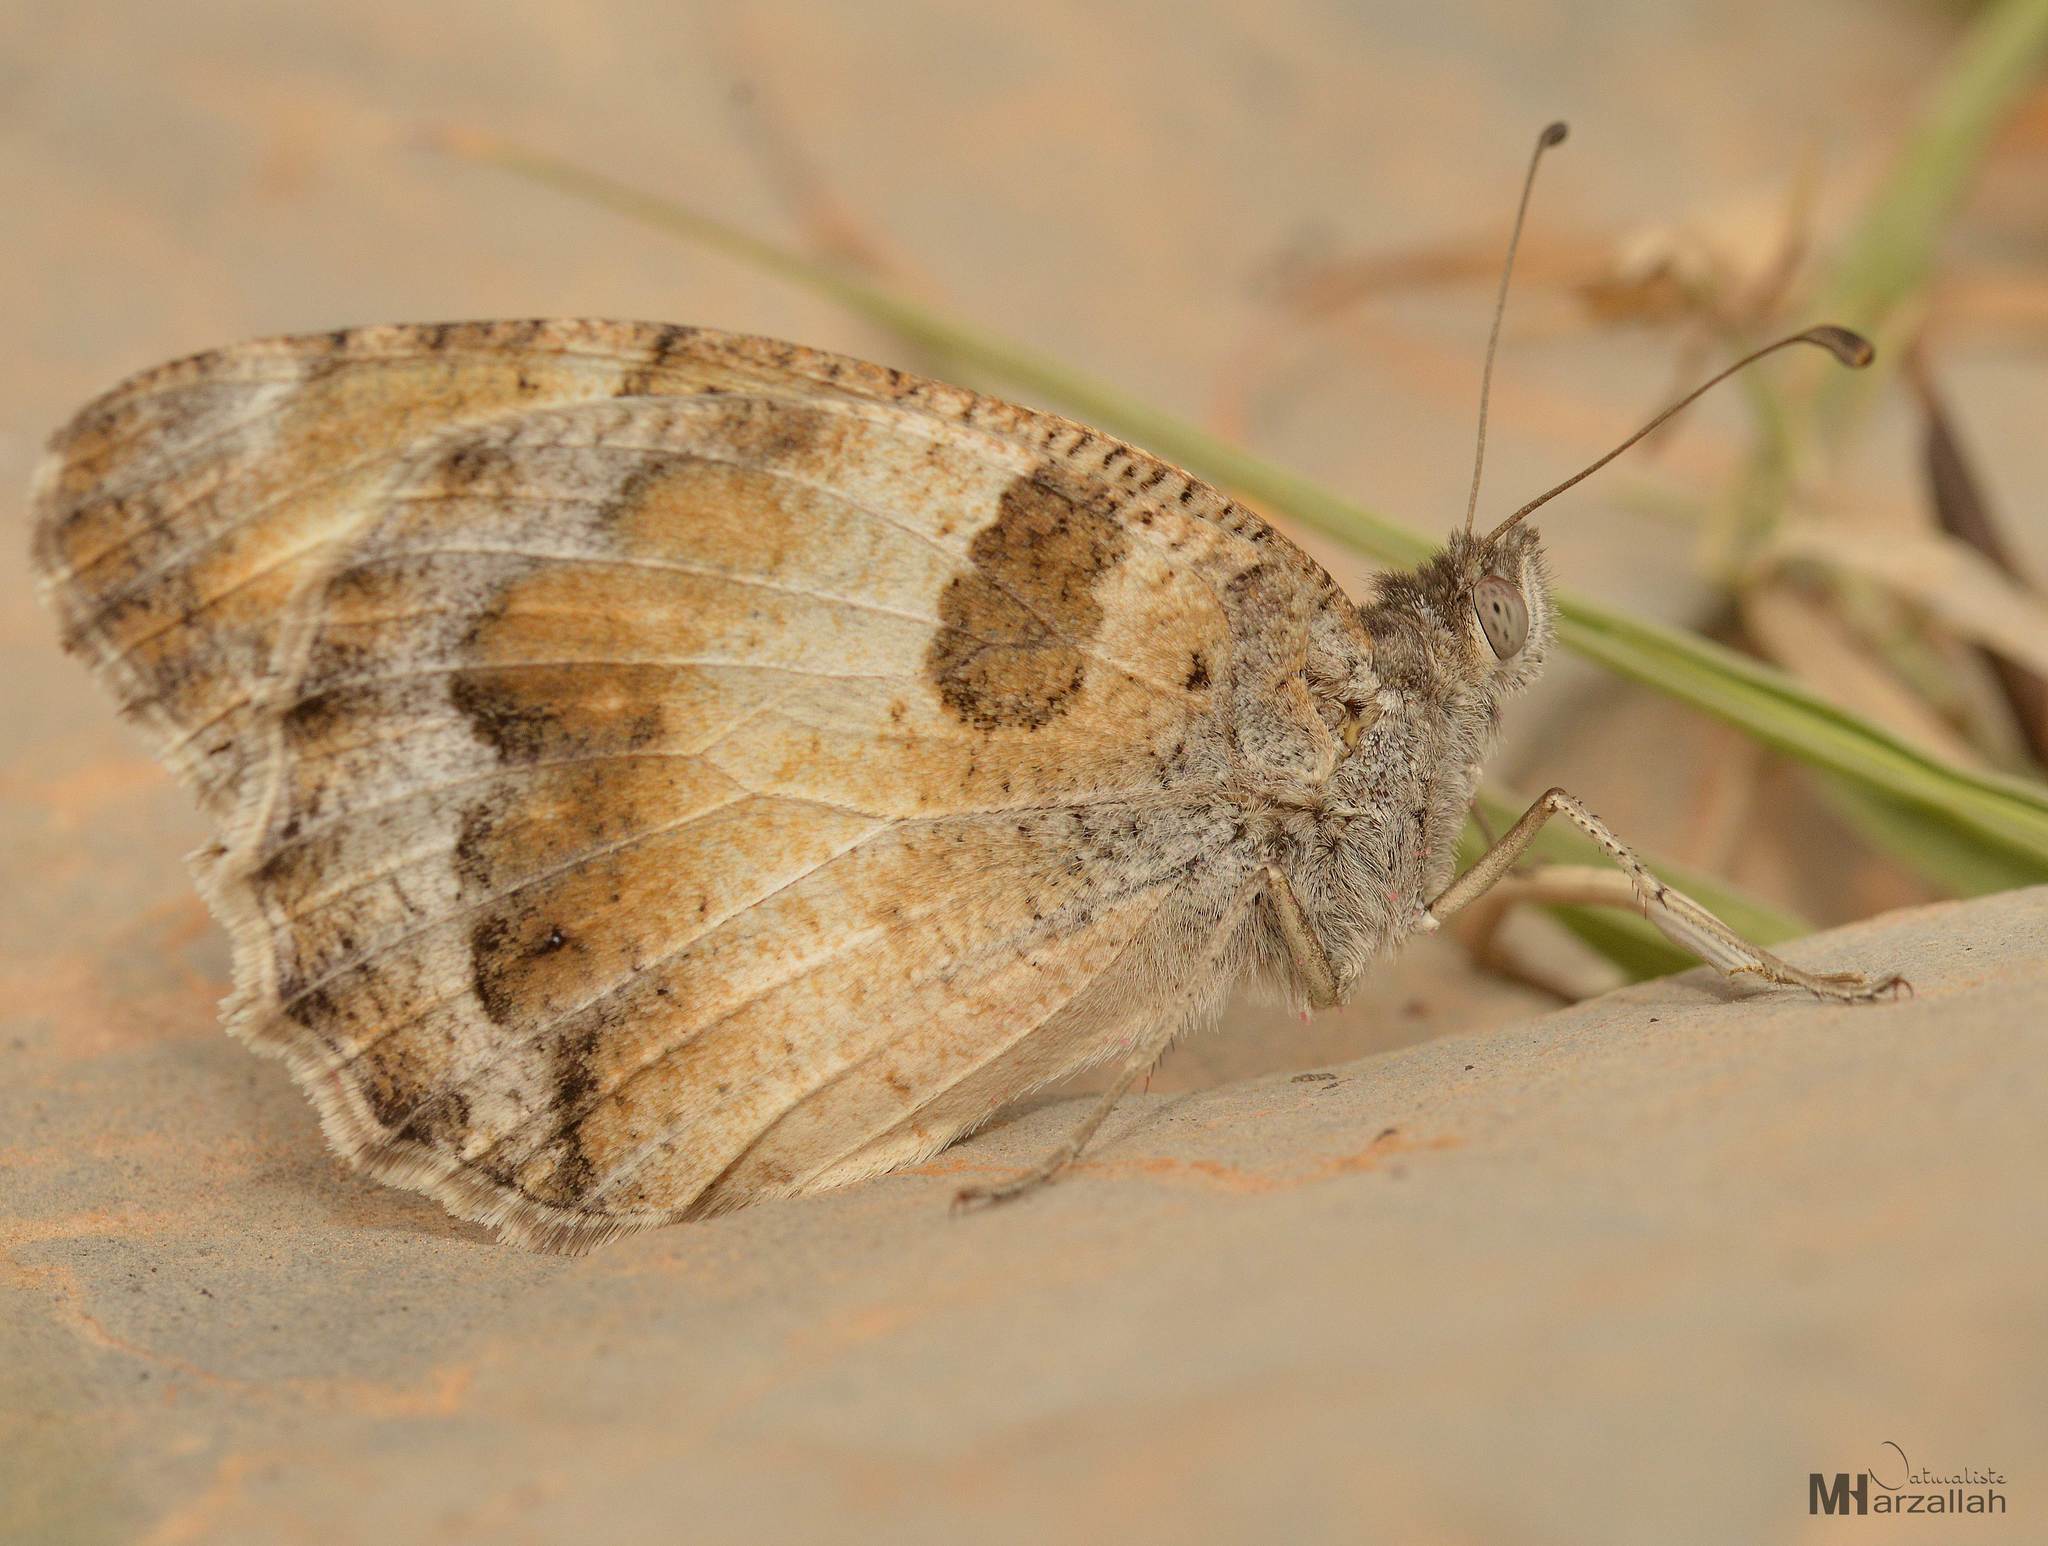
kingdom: Animalia
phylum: Arthropoda
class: Insecta
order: Lepidoptera
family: Nymphalidae
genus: Satyrus
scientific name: Satyrus briseis
